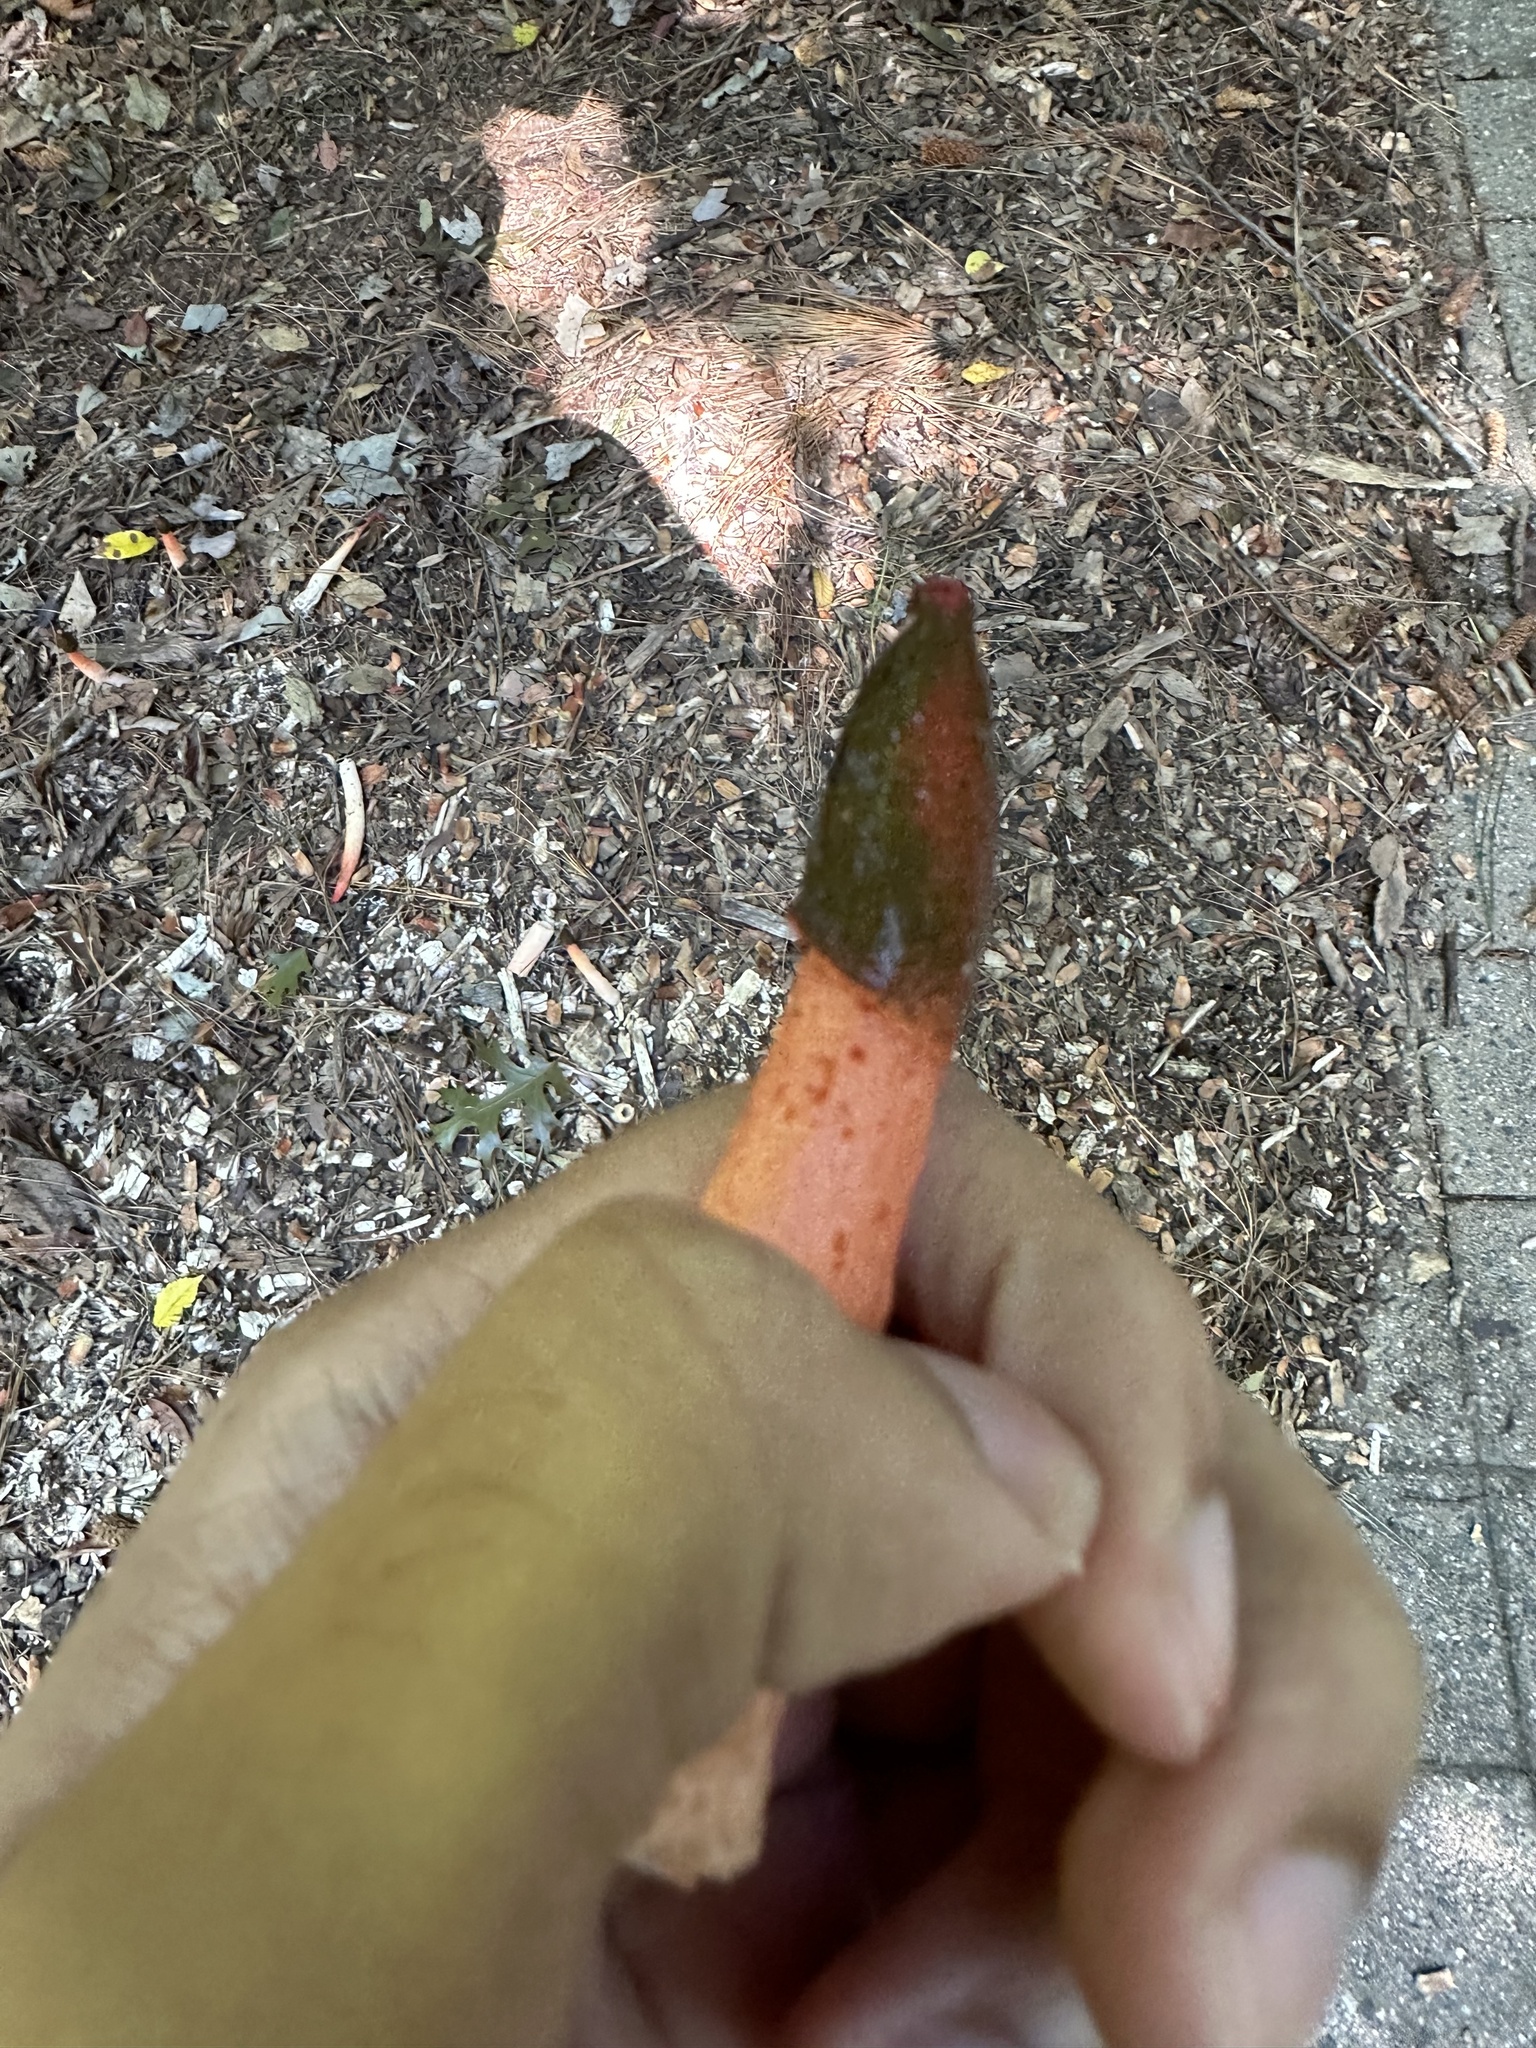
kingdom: Fungi
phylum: Basidiomycota
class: Agaricomycetes
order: Phallales
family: Phallaceae
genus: Phallus
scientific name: Phallus rugulosus
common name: Wrinkly stinkhorn
